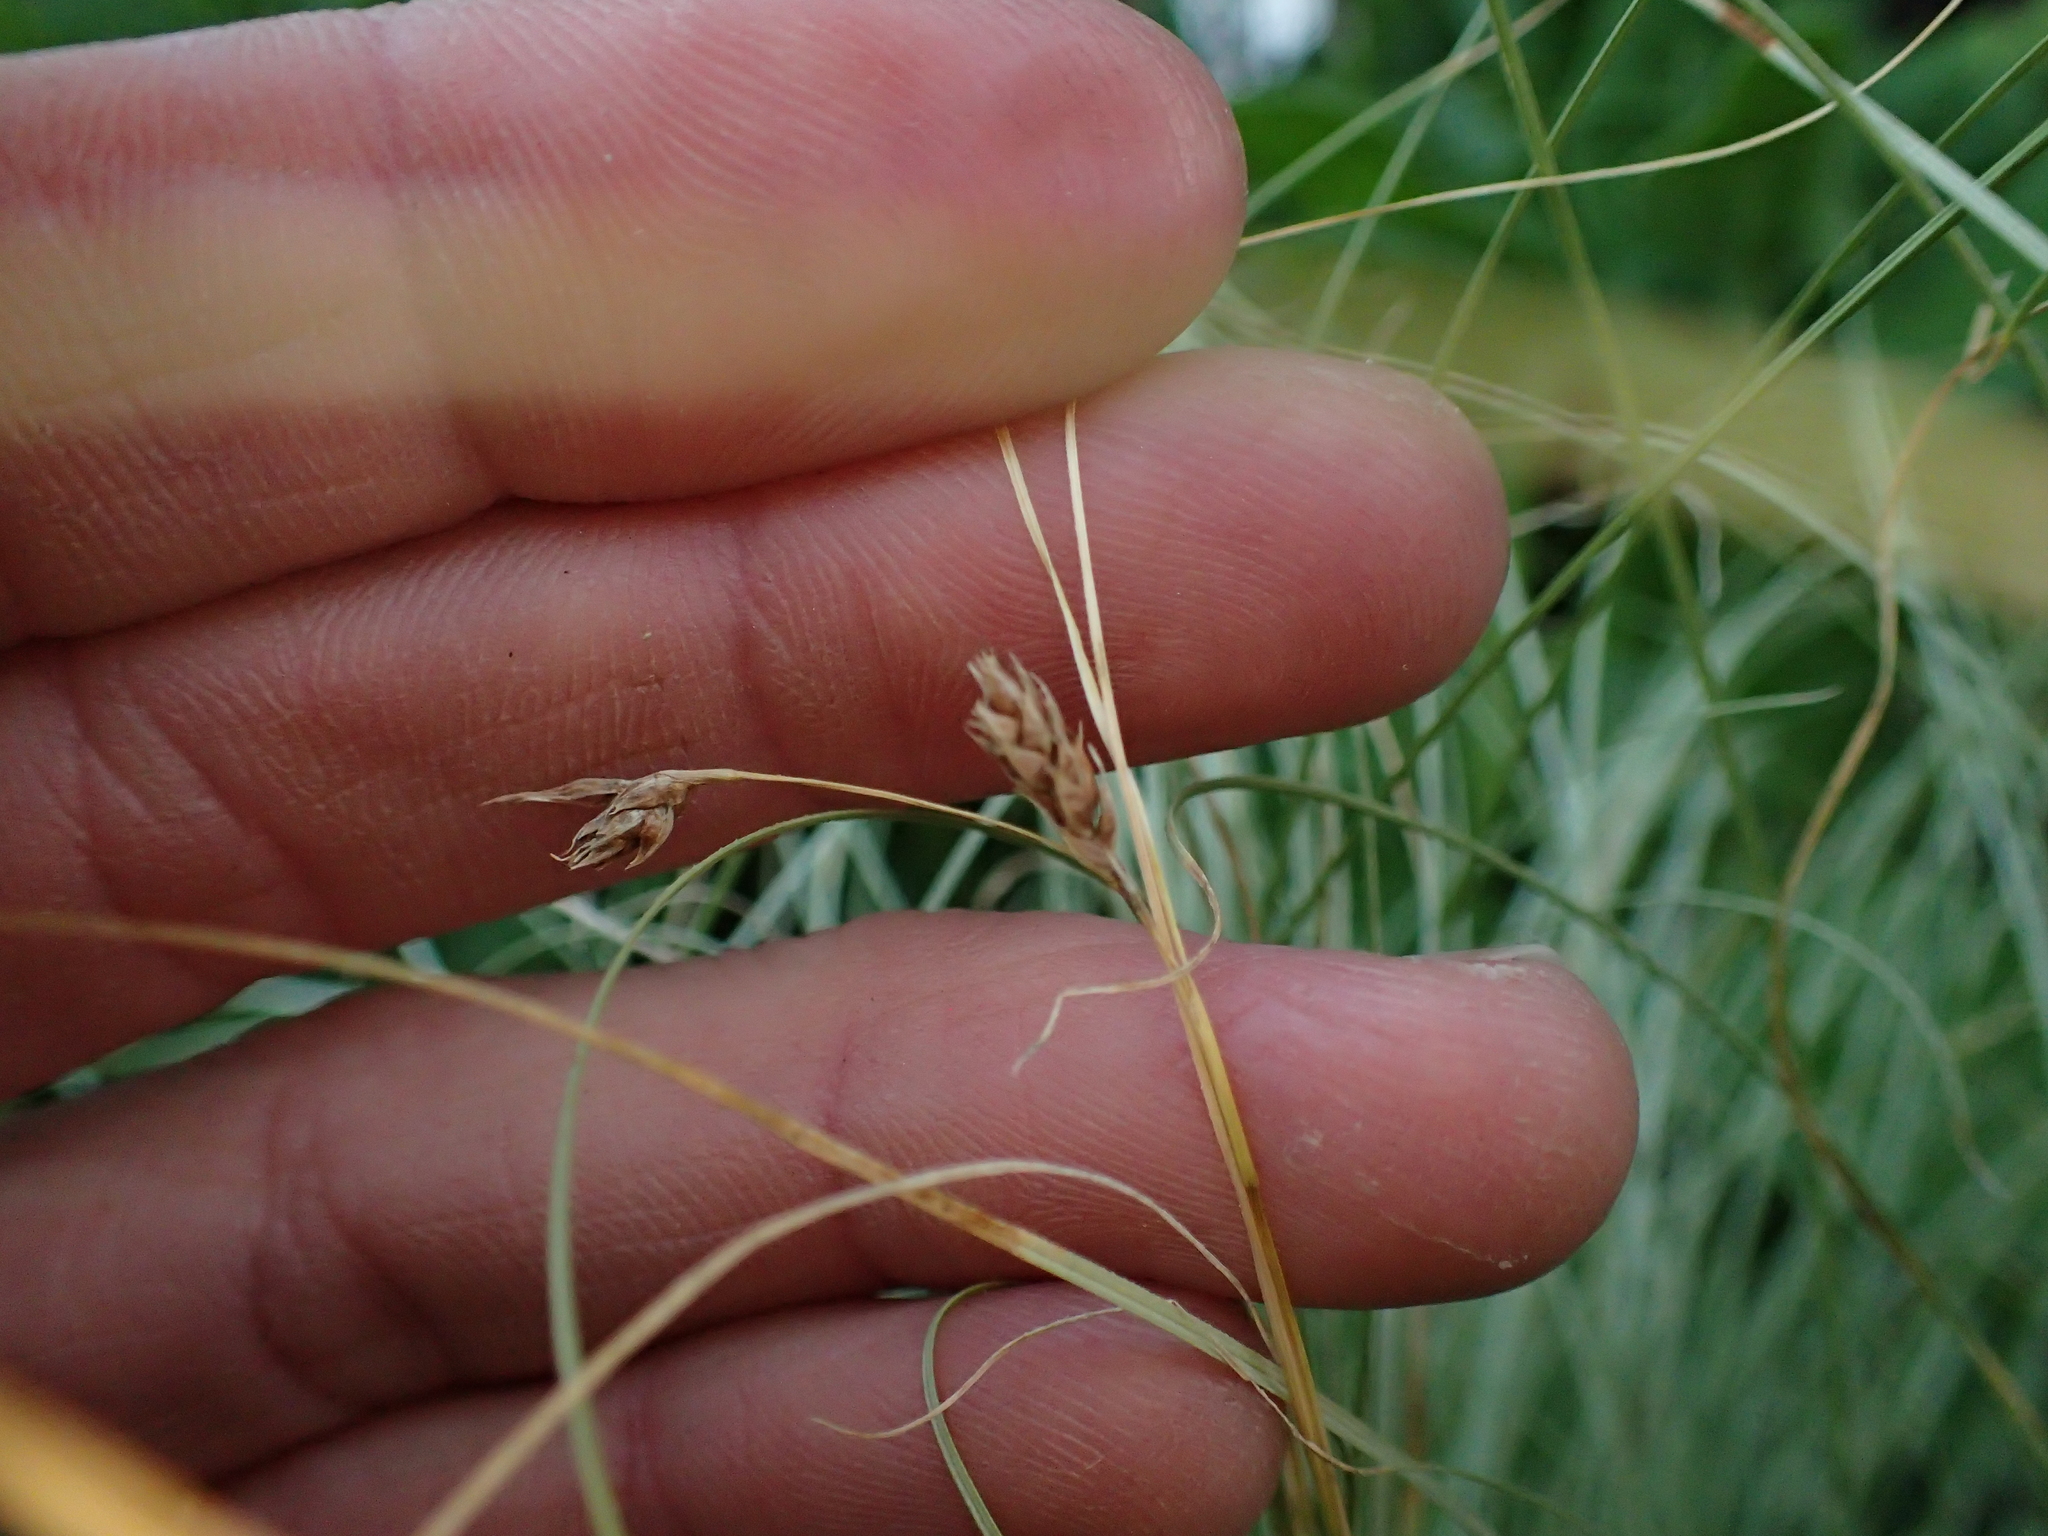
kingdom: Plantae
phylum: Tracheophyta
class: Liliopsida
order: Poales
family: Cyperaceae
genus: Carex
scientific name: Carex comans
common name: Longwood tussock
